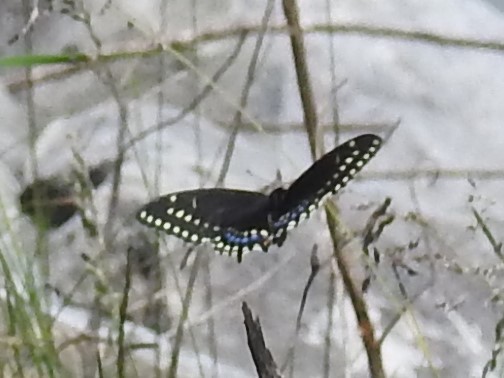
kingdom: Animalia
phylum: Arthropoda
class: Insecta
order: Lepidoptera
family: Papilionidae
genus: Papilio
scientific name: Papilio polyxenes
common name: Black swallowtail
